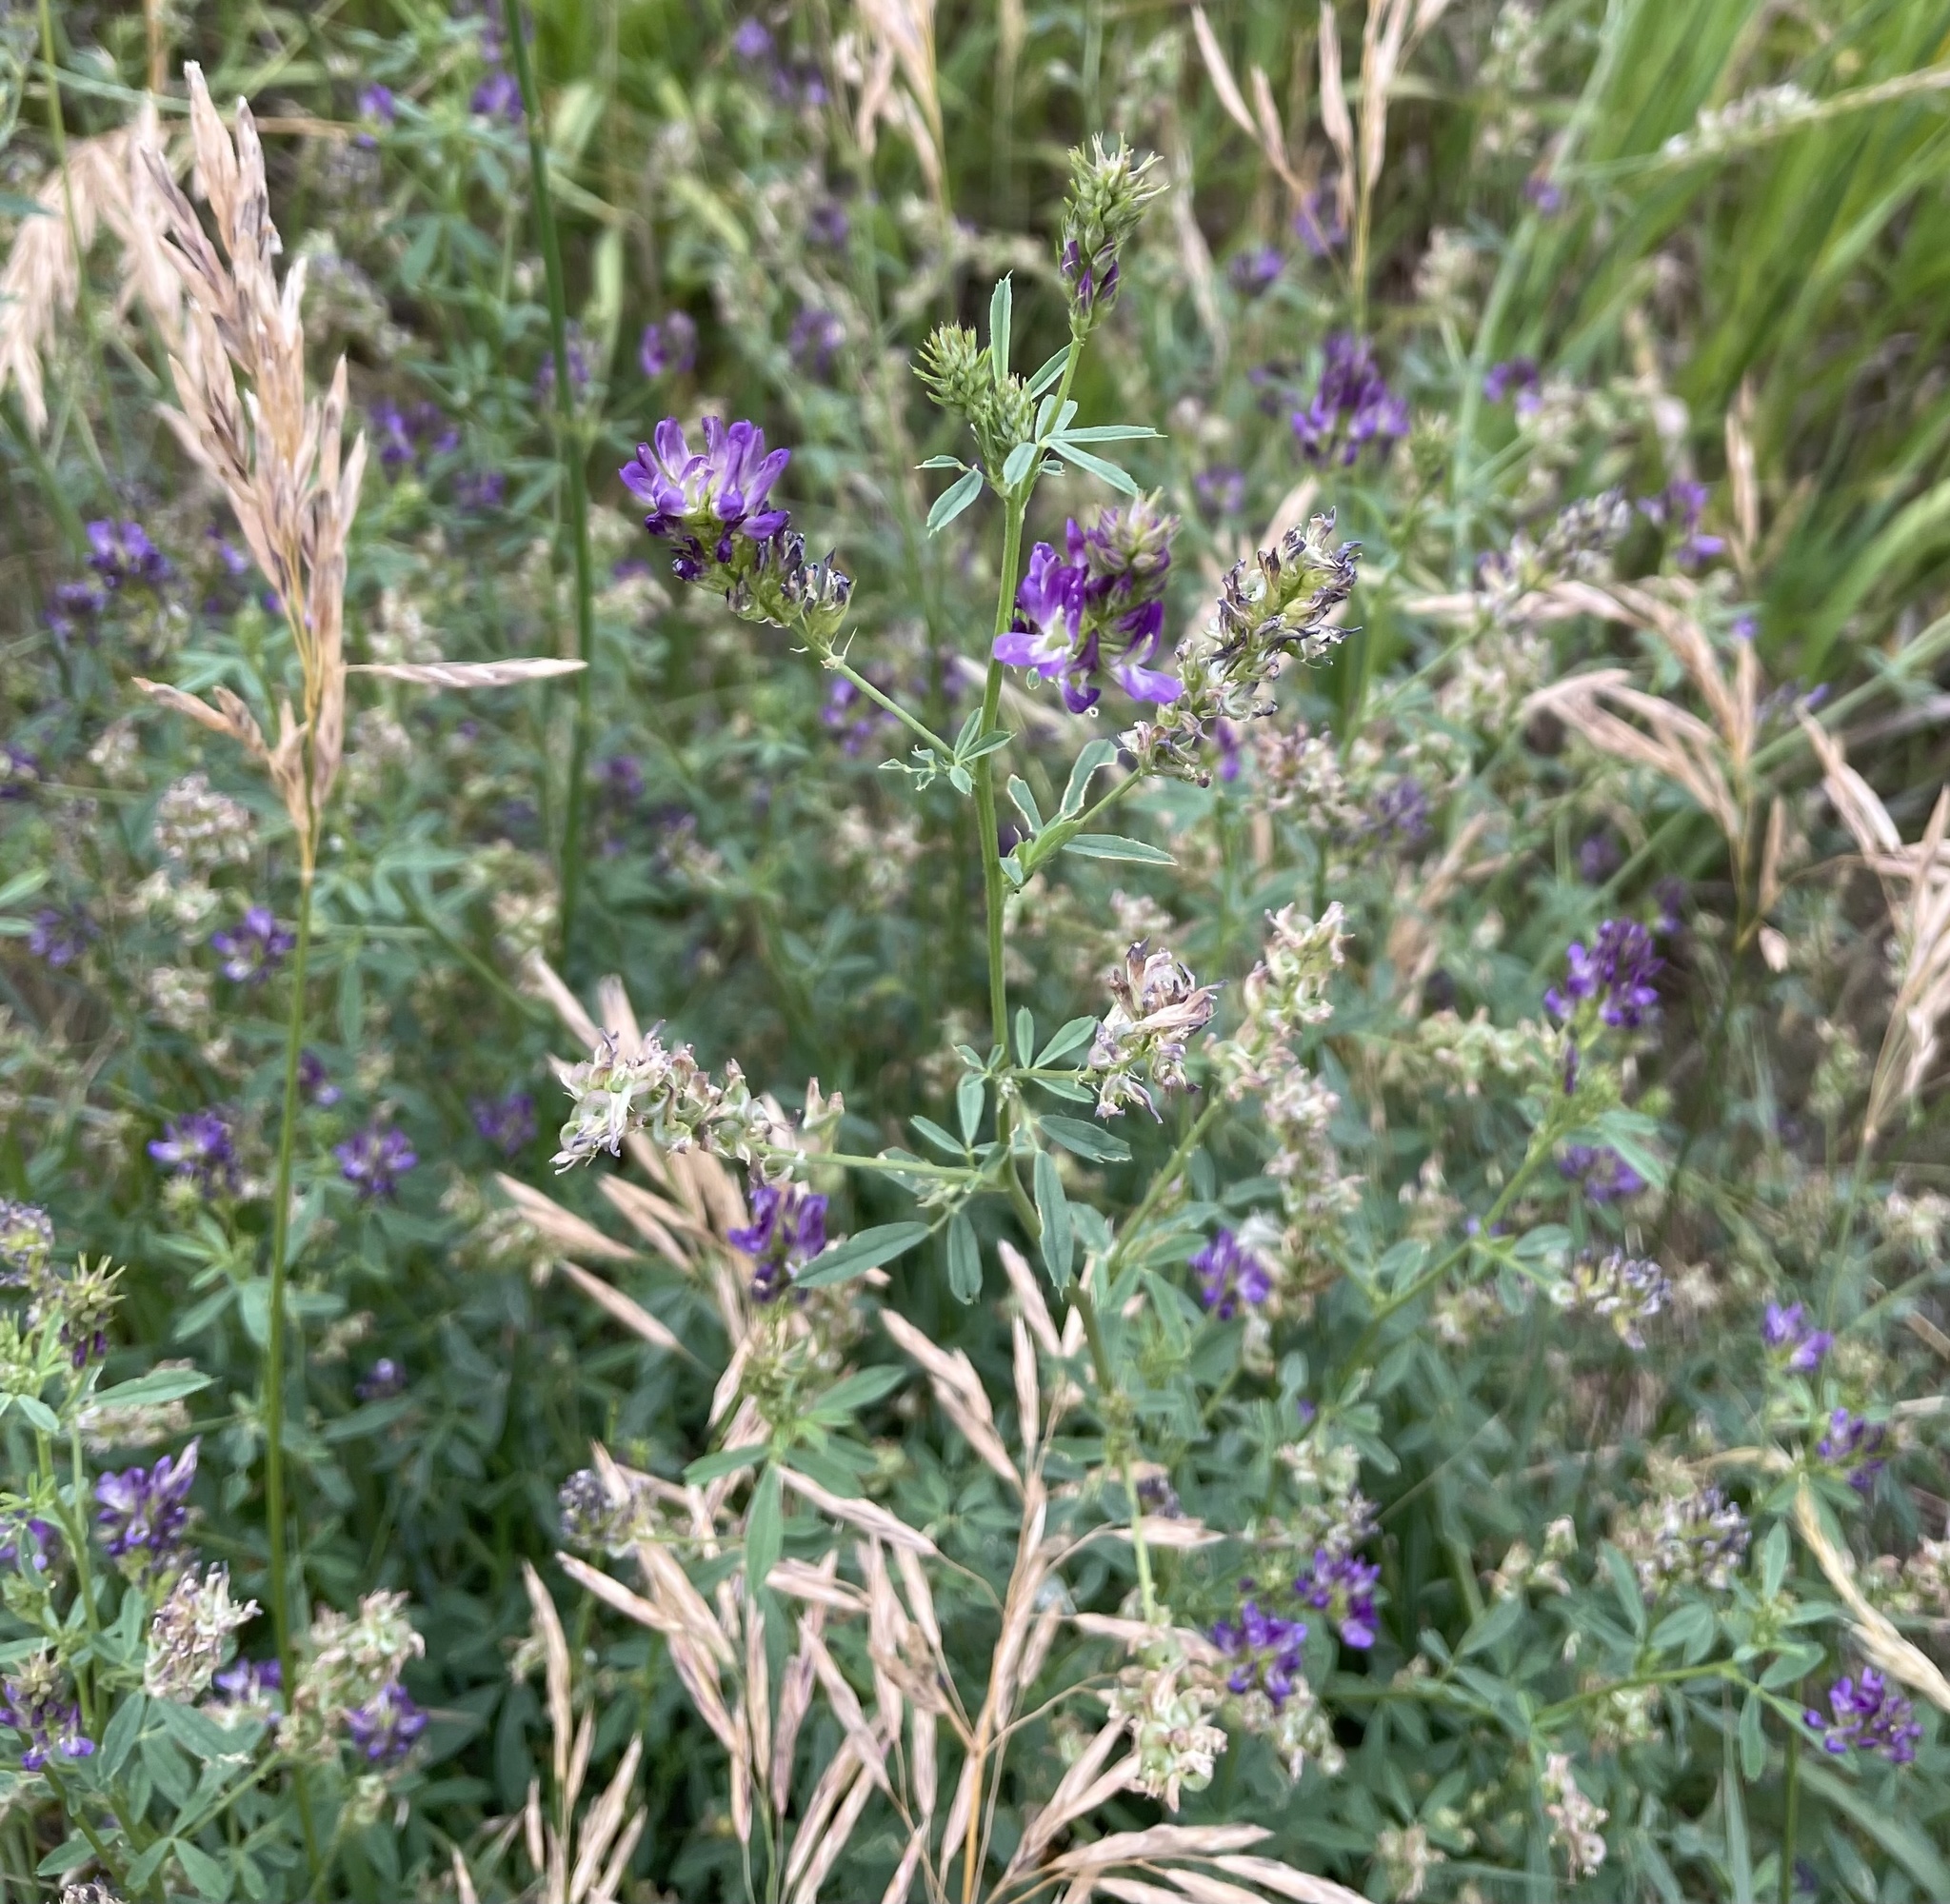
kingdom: Plantae
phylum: Tracheophyta
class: Magnoliopsida
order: Fabales
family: Fabaceae
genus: Medicago
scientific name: Medicago sativa
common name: Alfalfa
